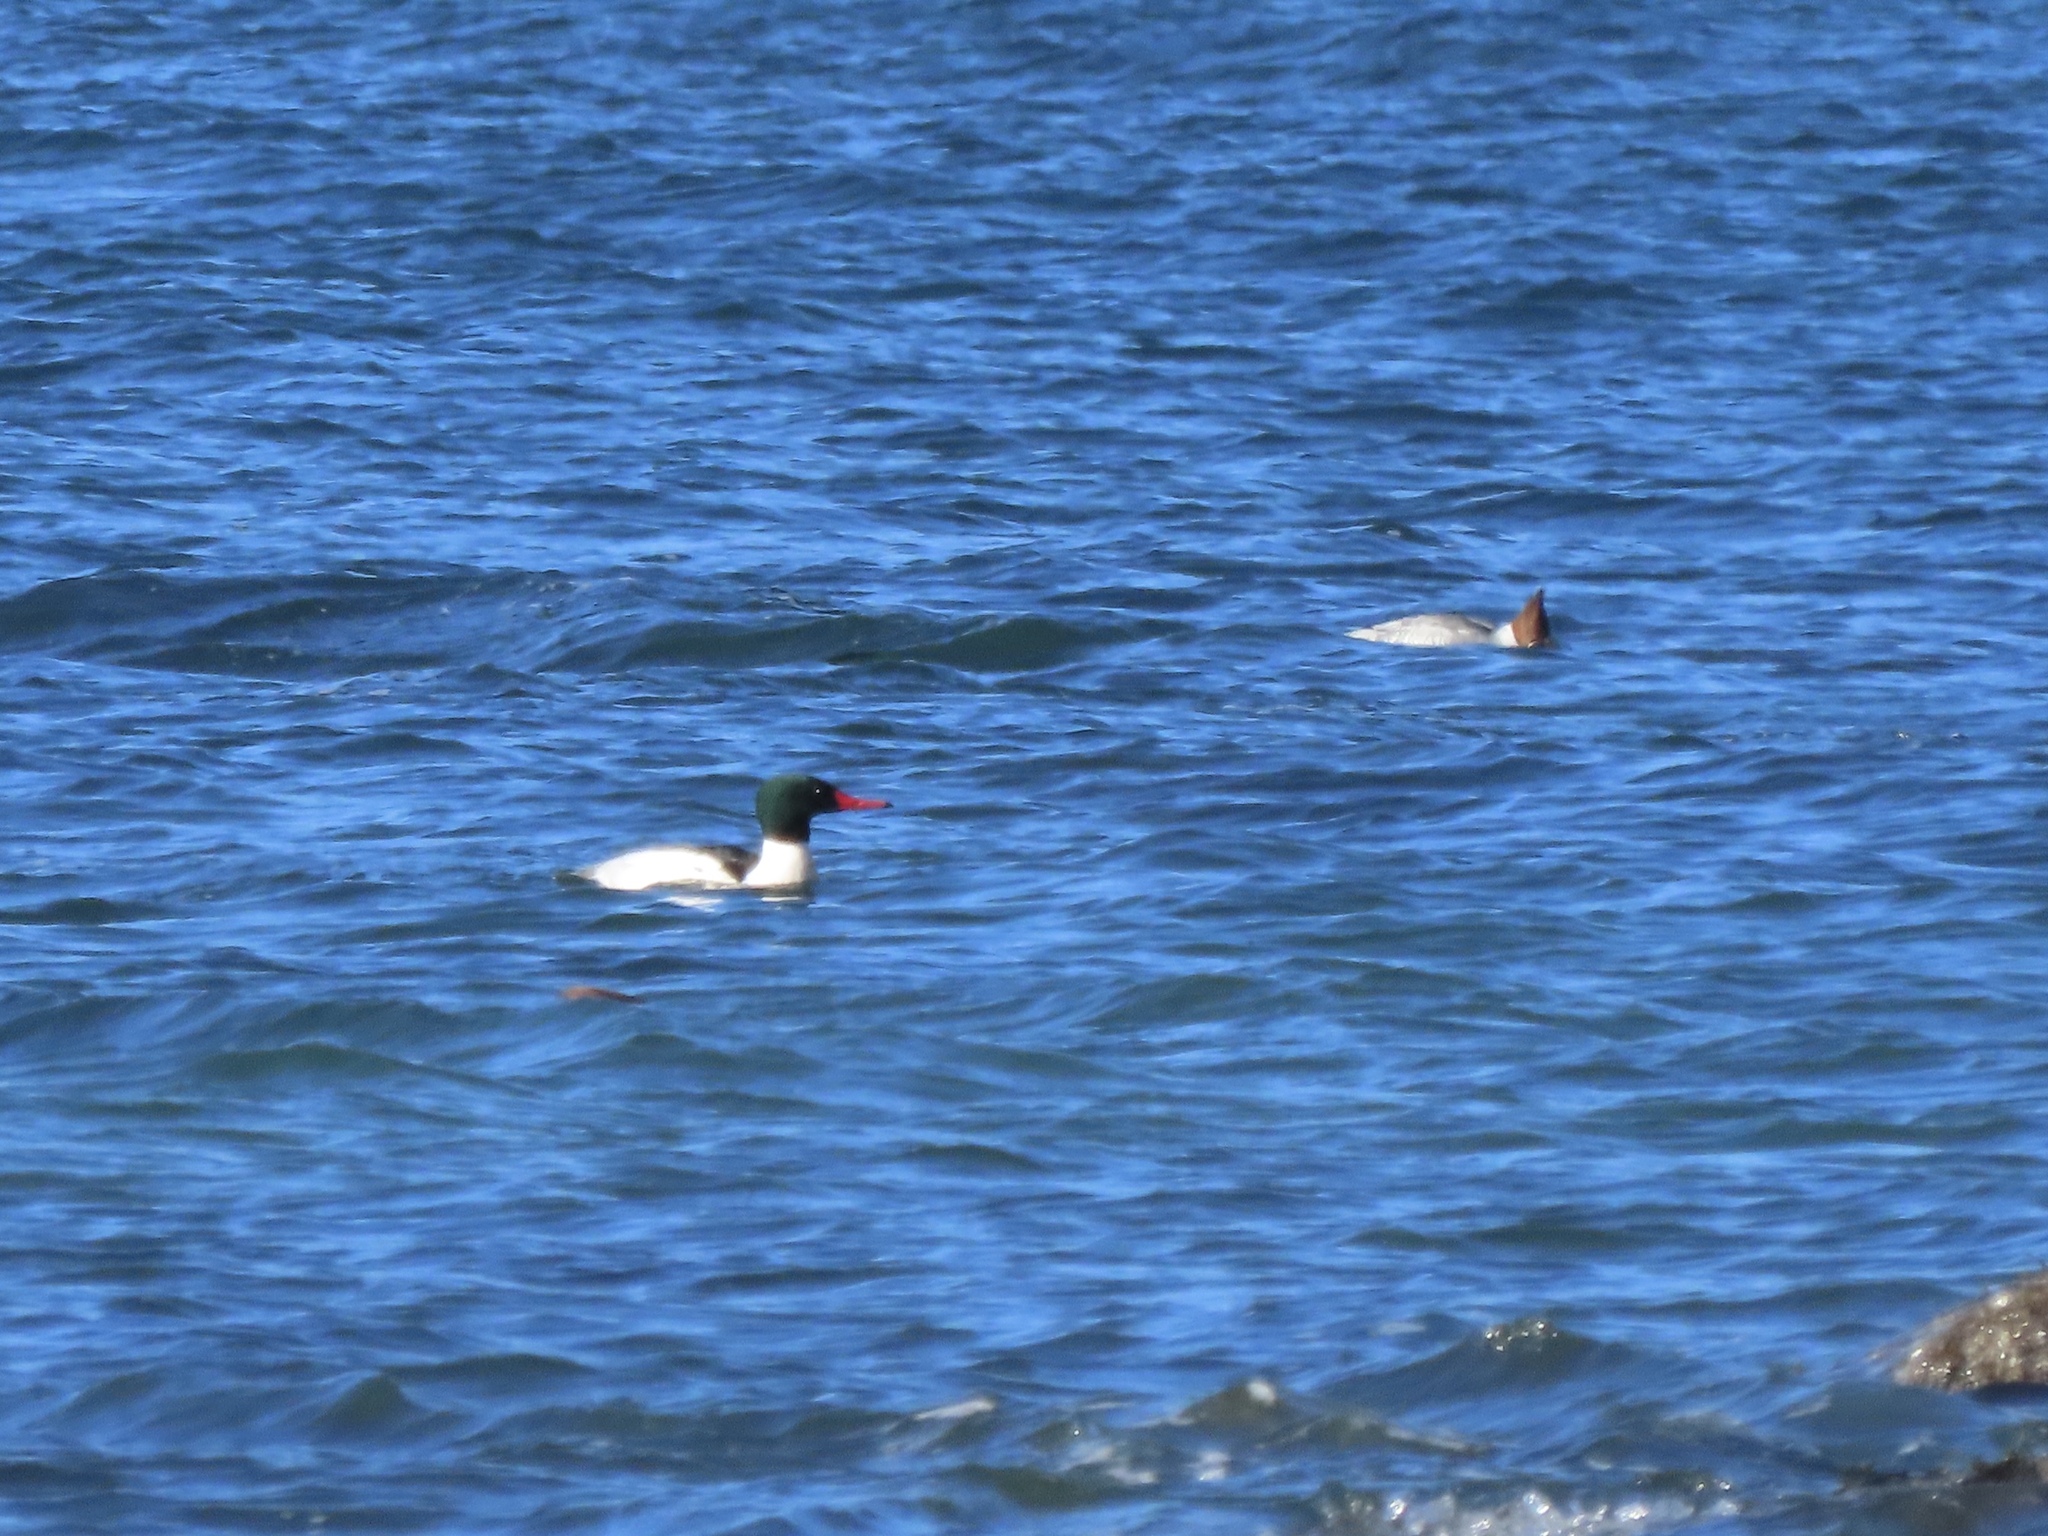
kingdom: Animalia
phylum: Chordata
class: Aves
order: Anseriformes
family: Anatidae
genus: Mergus
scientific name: Mergus merganser
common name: Common merganser
